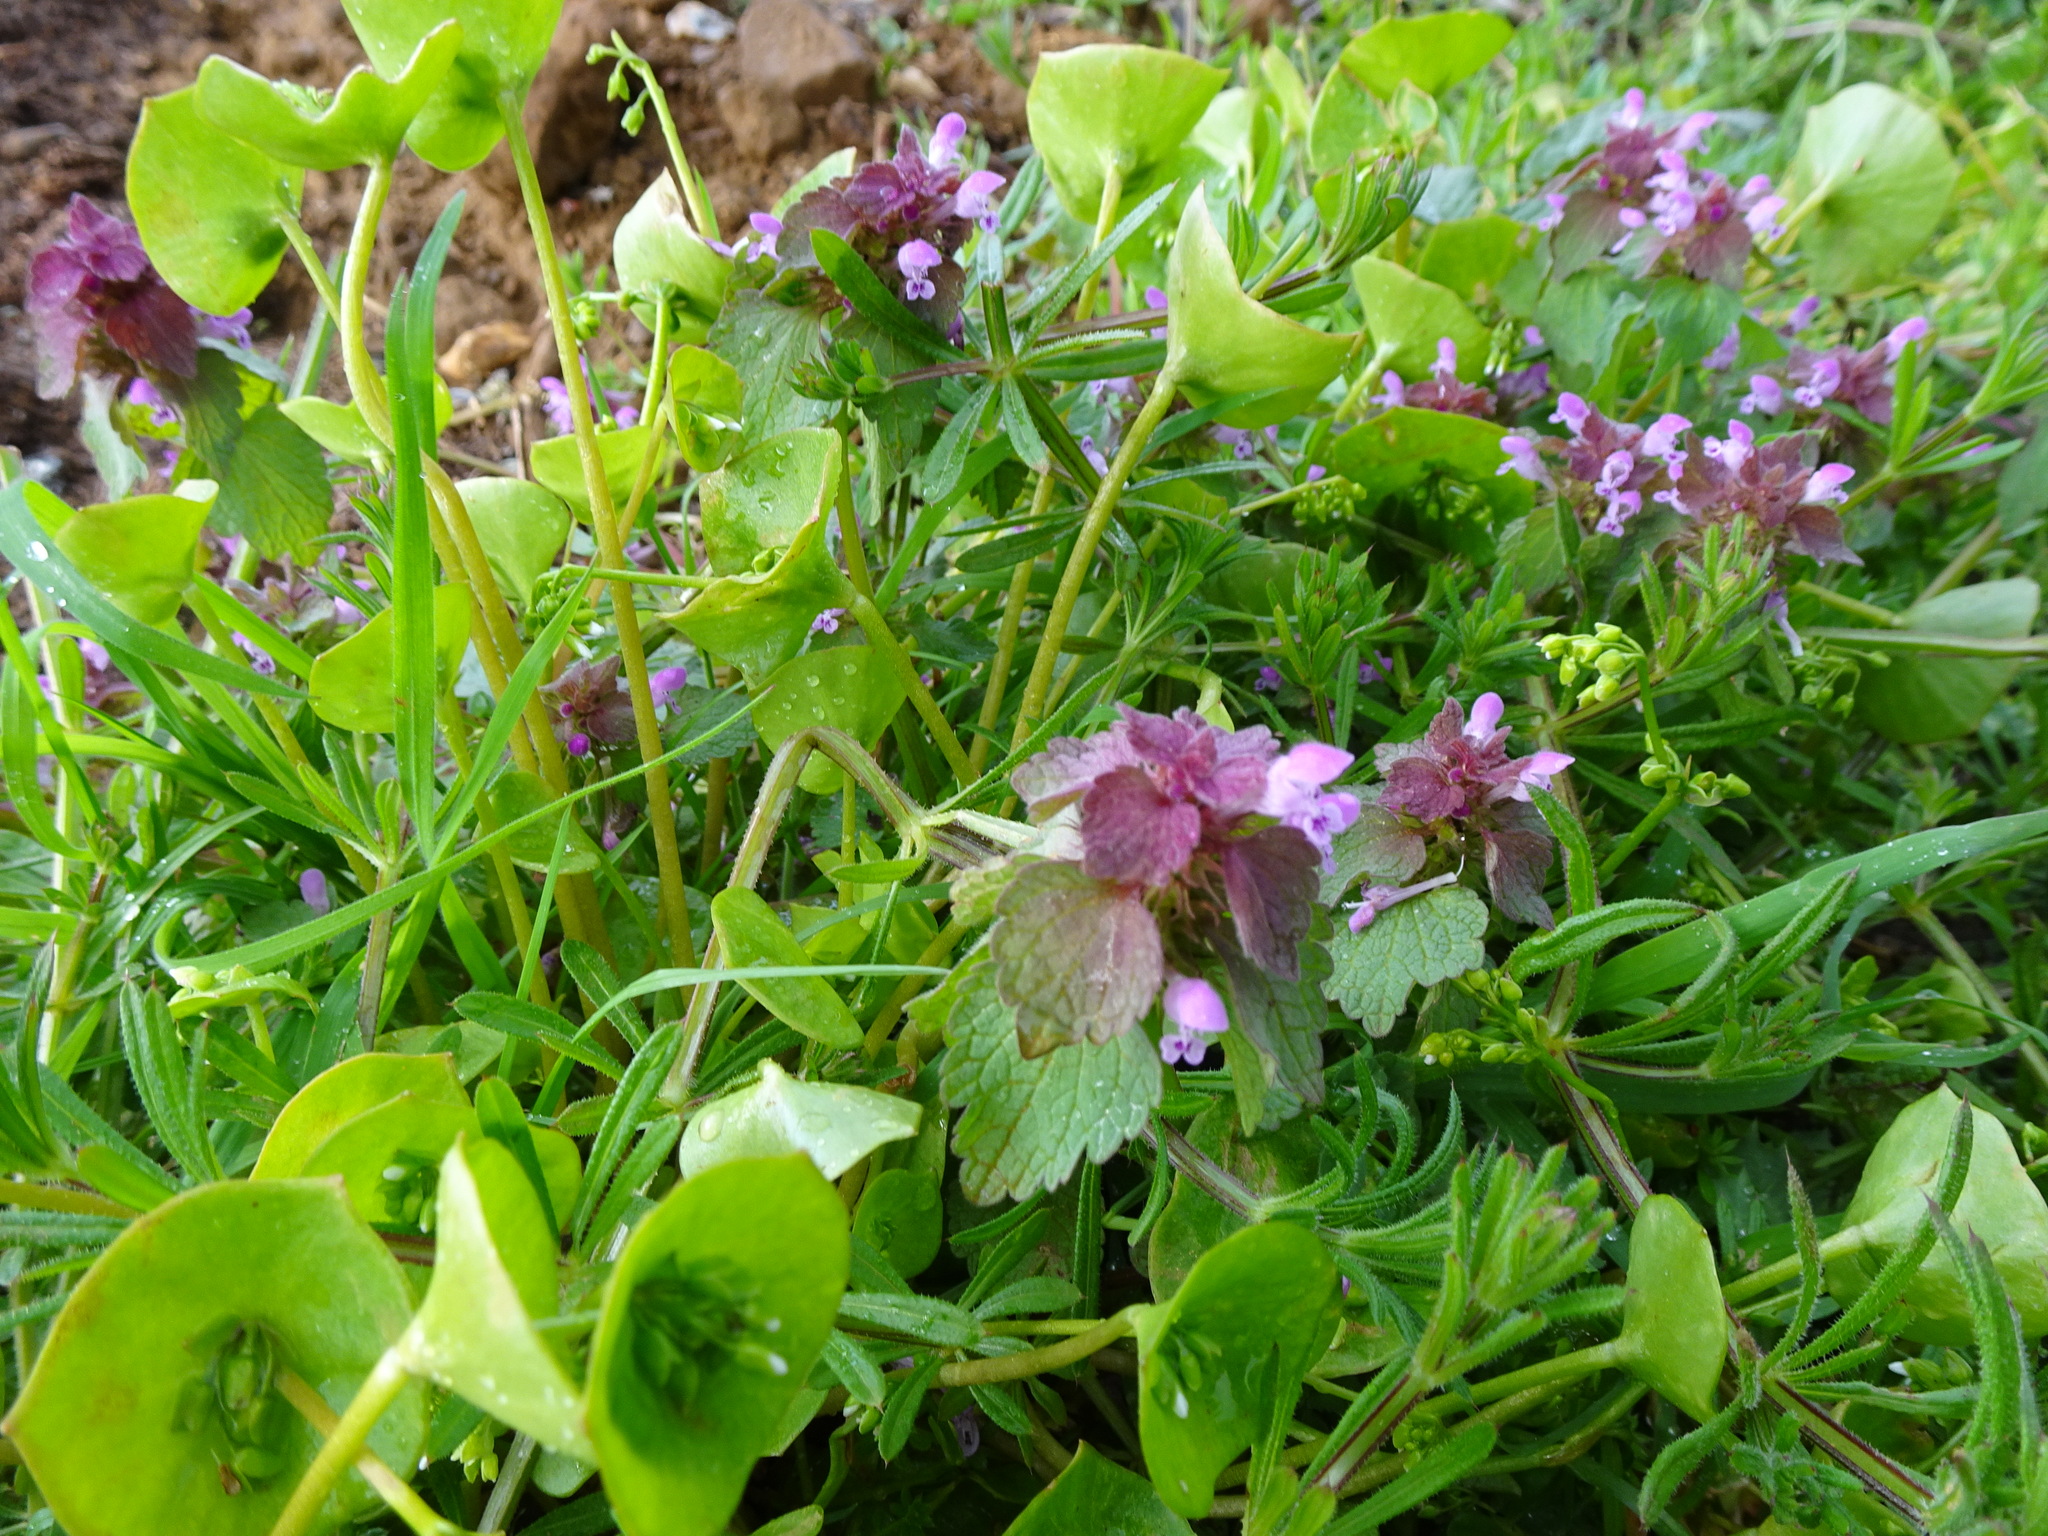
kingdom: Plantae
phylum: Tracheophyta
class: Magnoliopsida
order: Lamiales
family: Lamiaceae
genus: Lamium
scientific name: Lamium purpureum
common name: Red dead-nettle
